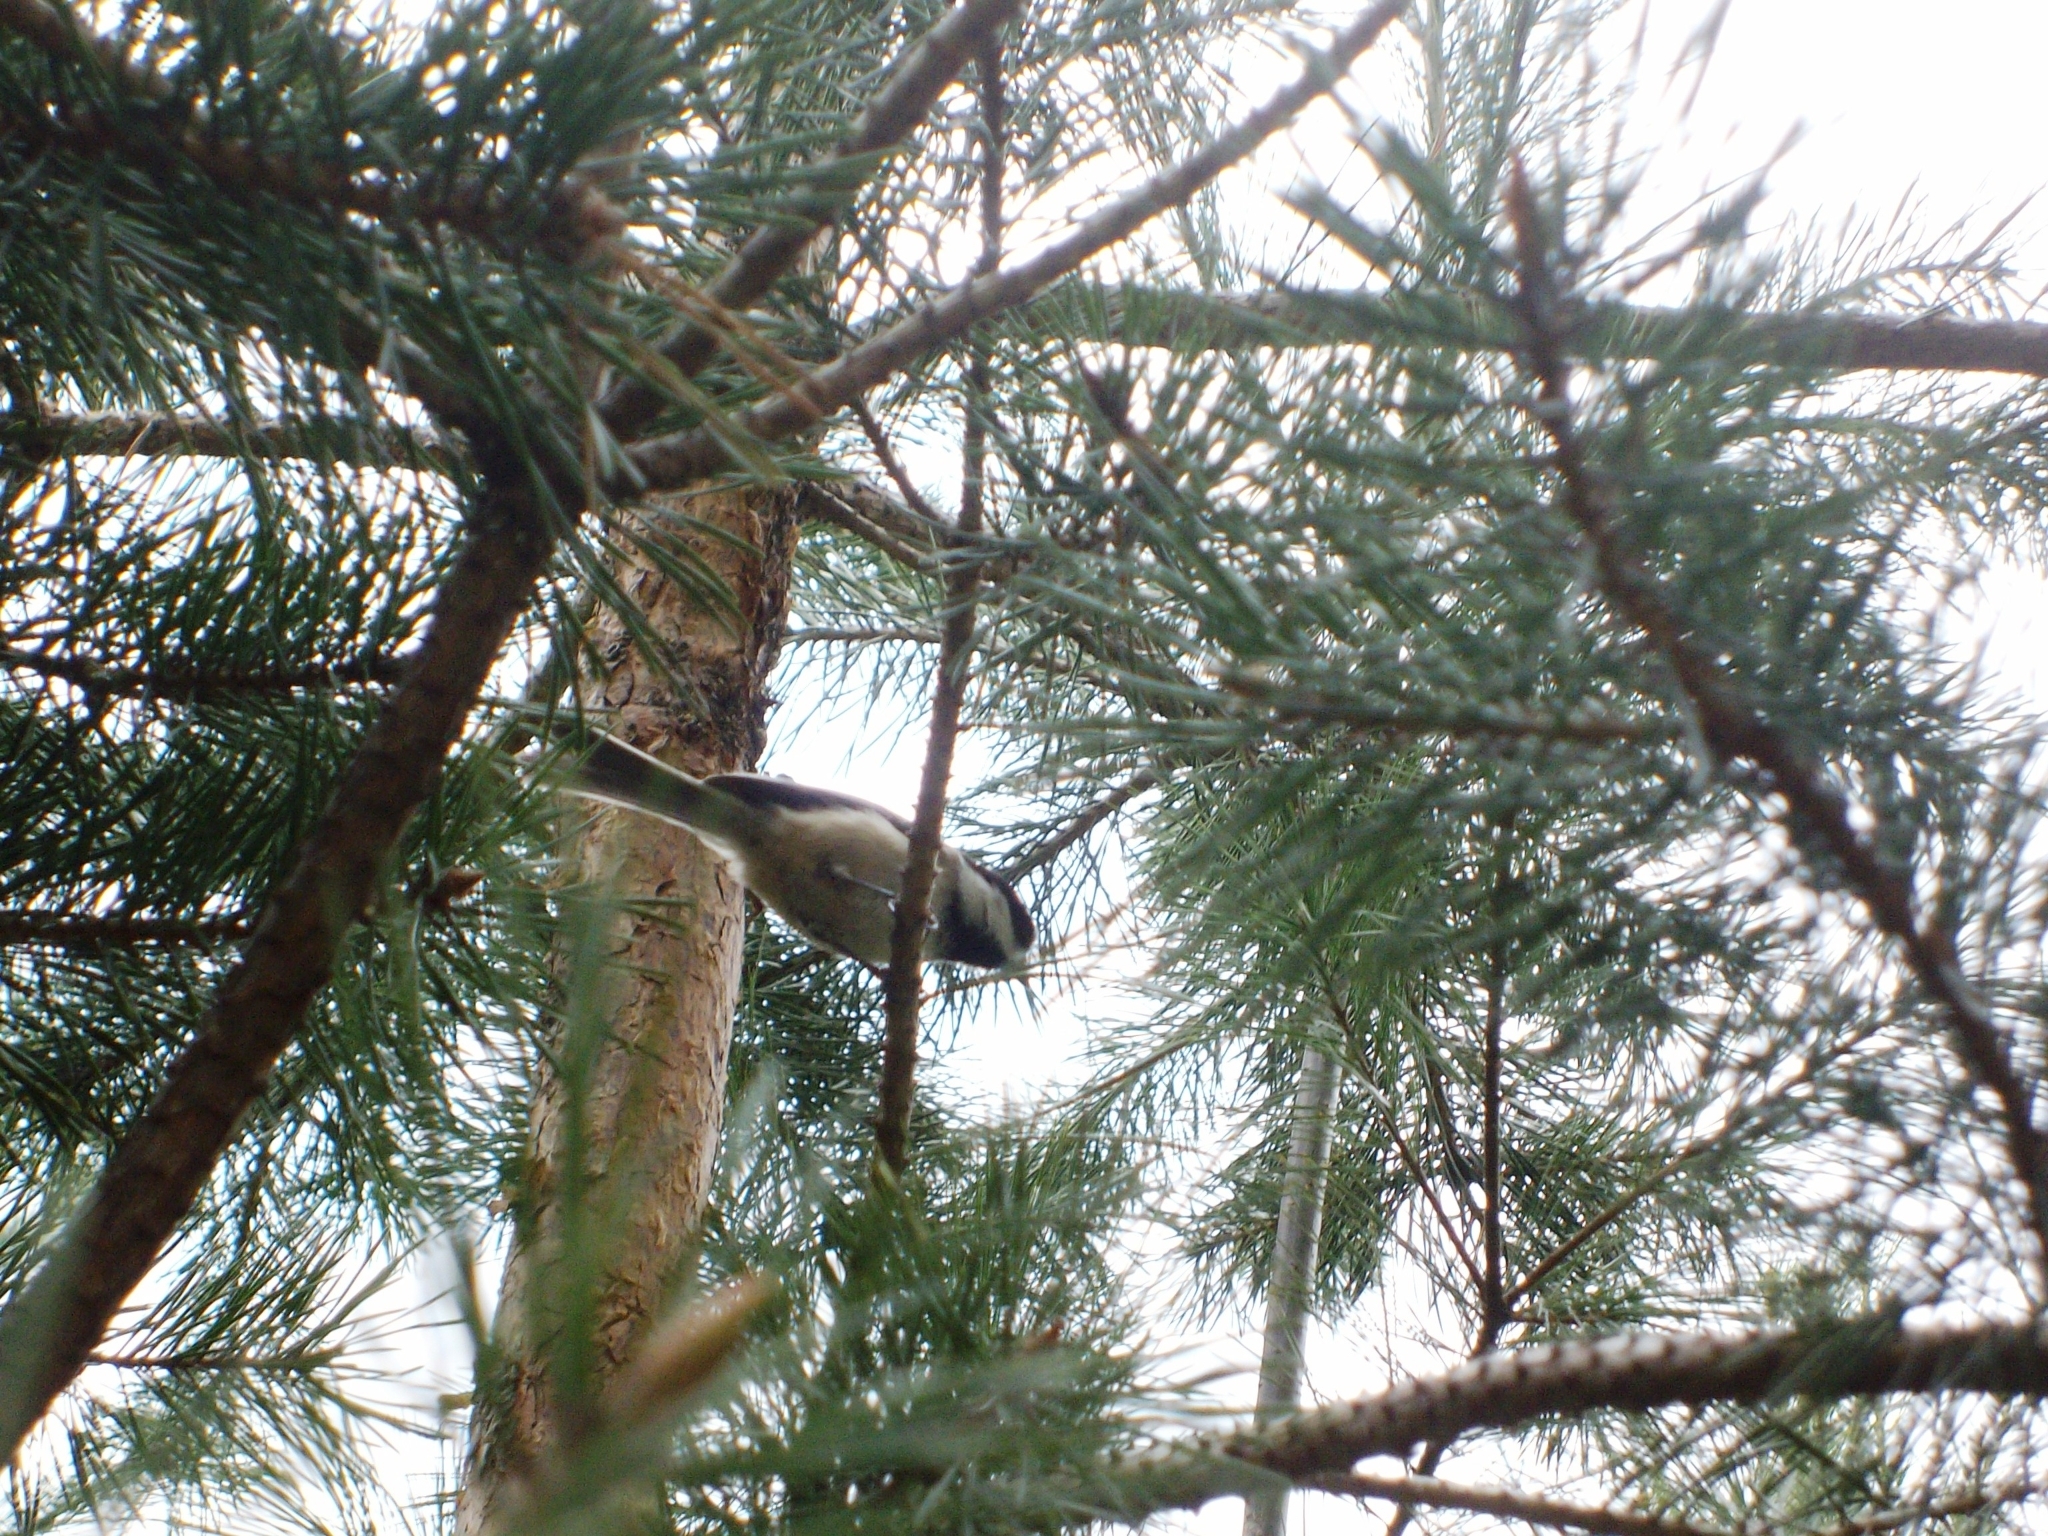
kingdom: Animalia
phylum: Chordata
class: Aves
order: Passeriformes
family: Paridae
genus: Poecile
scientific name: Poecile atricapillus
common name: Black-capped chickadee
